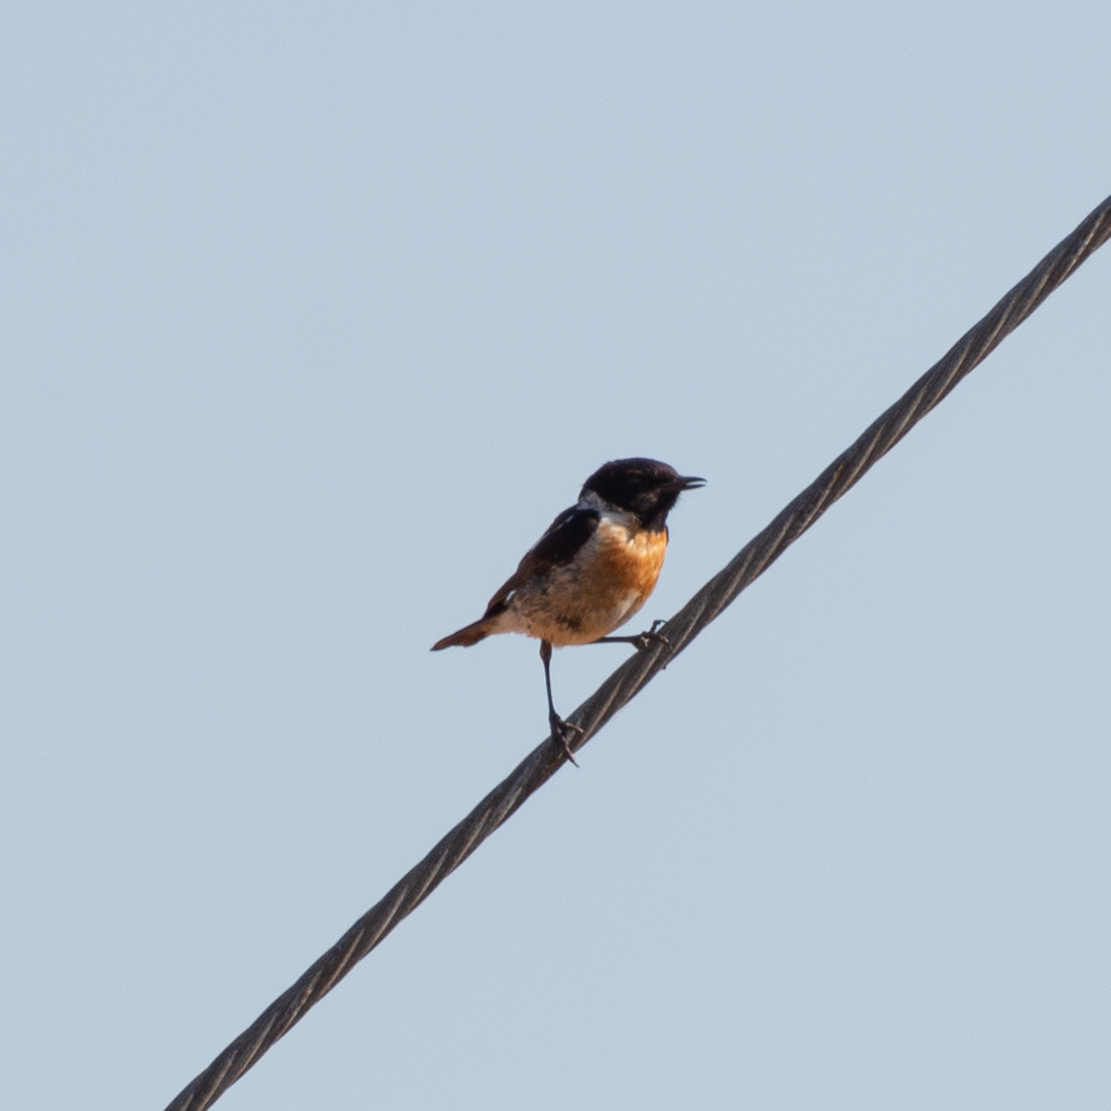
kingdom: Animalia
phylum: Chordata
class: Aves
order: Passeriformes
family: Muscicapidae
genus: Saxicola
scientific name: Saxicola rubicola
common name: European stonechat
